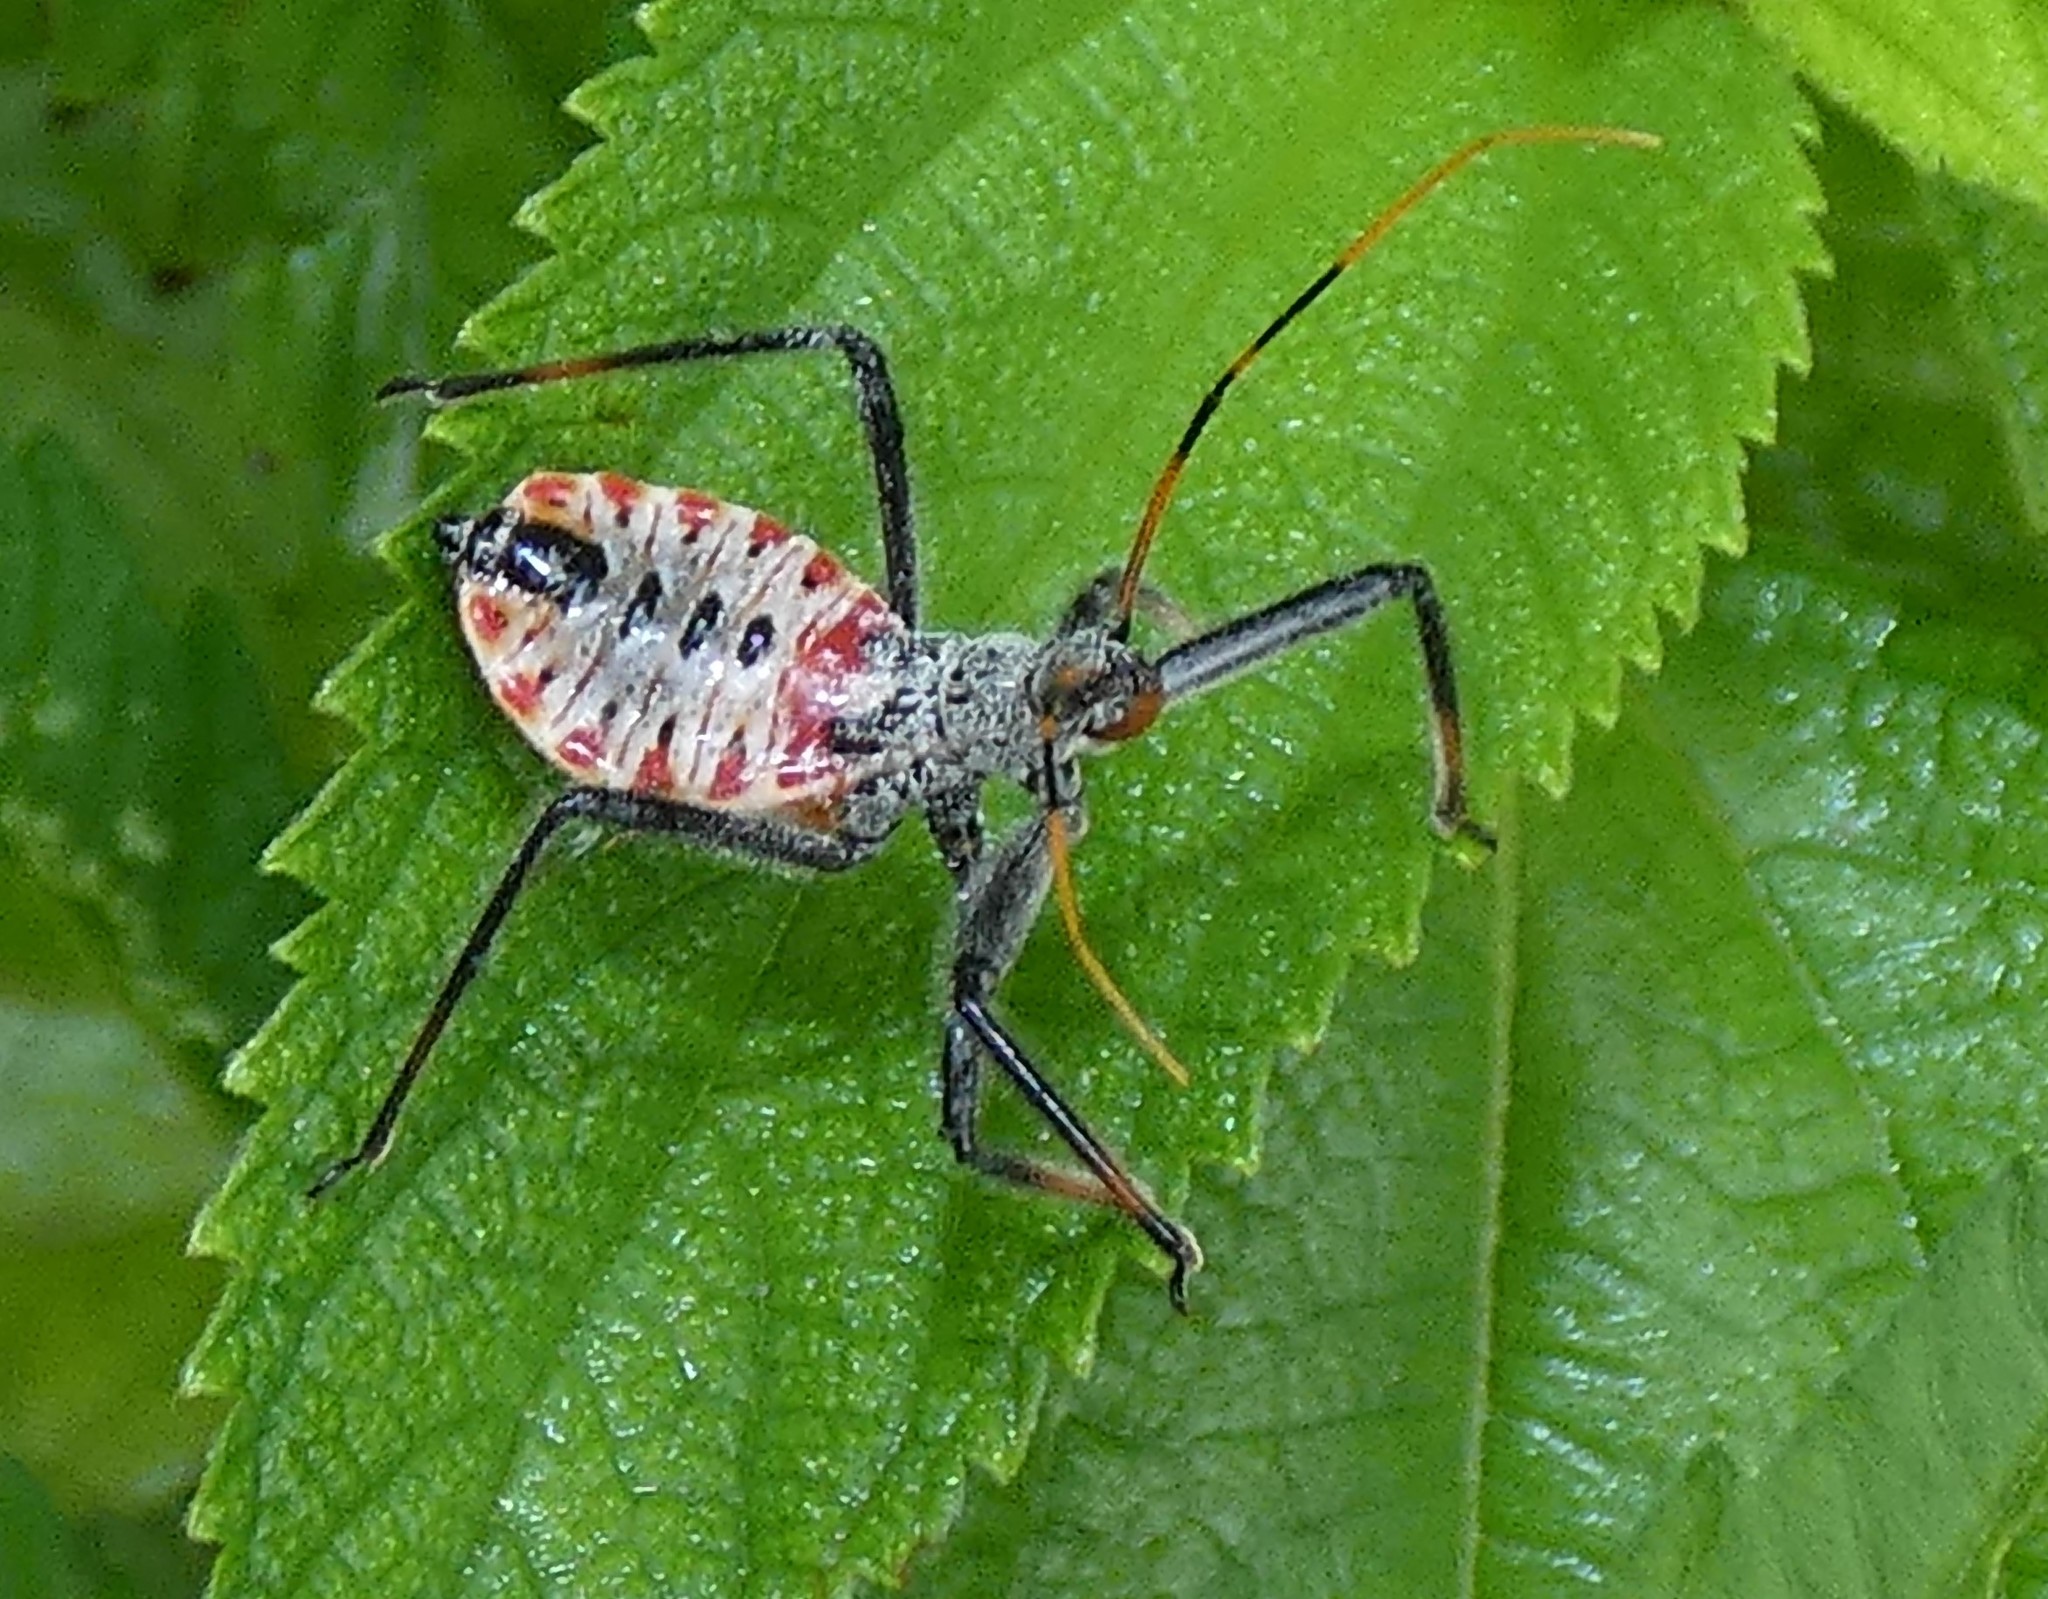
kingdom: Animalia
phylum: Arthropoda
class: Insecta
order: Hemiptera
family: Reduviidae
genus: Arilus
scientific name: Arilus cristatus
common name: North american wheel bug
